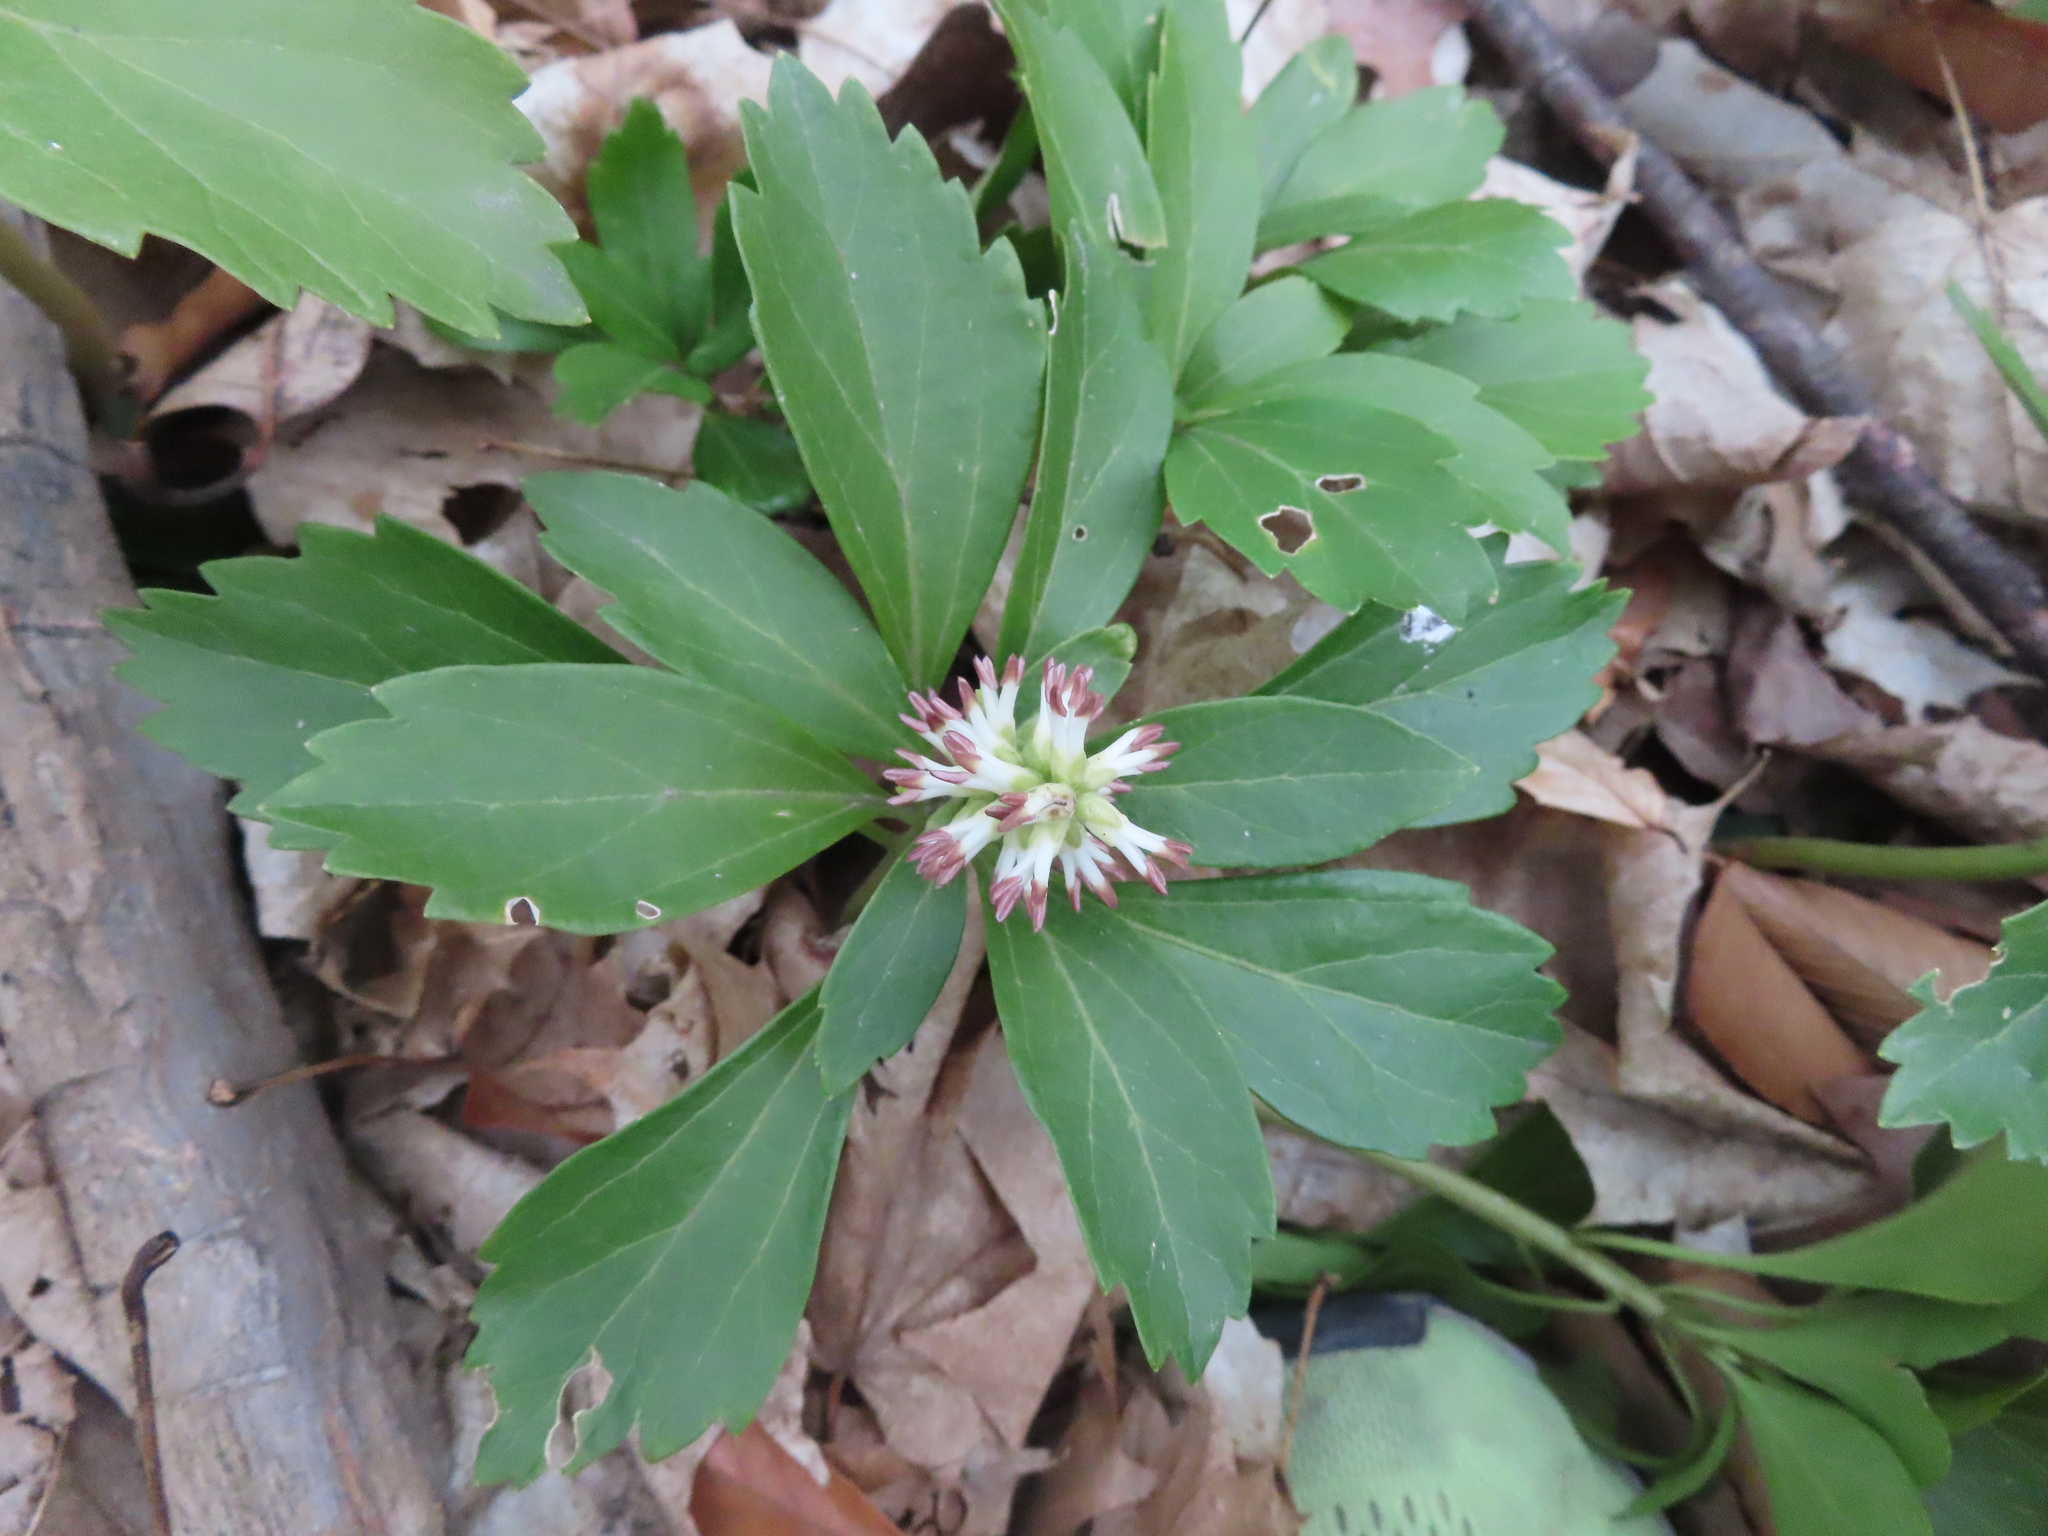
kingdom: Plantae
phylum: Tracheophyta
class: Magnoliopsida
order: Buxales
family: Buxaceae
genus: Pachysandra
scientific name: Pachysandra terminalis
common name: Japanese pachysandra
